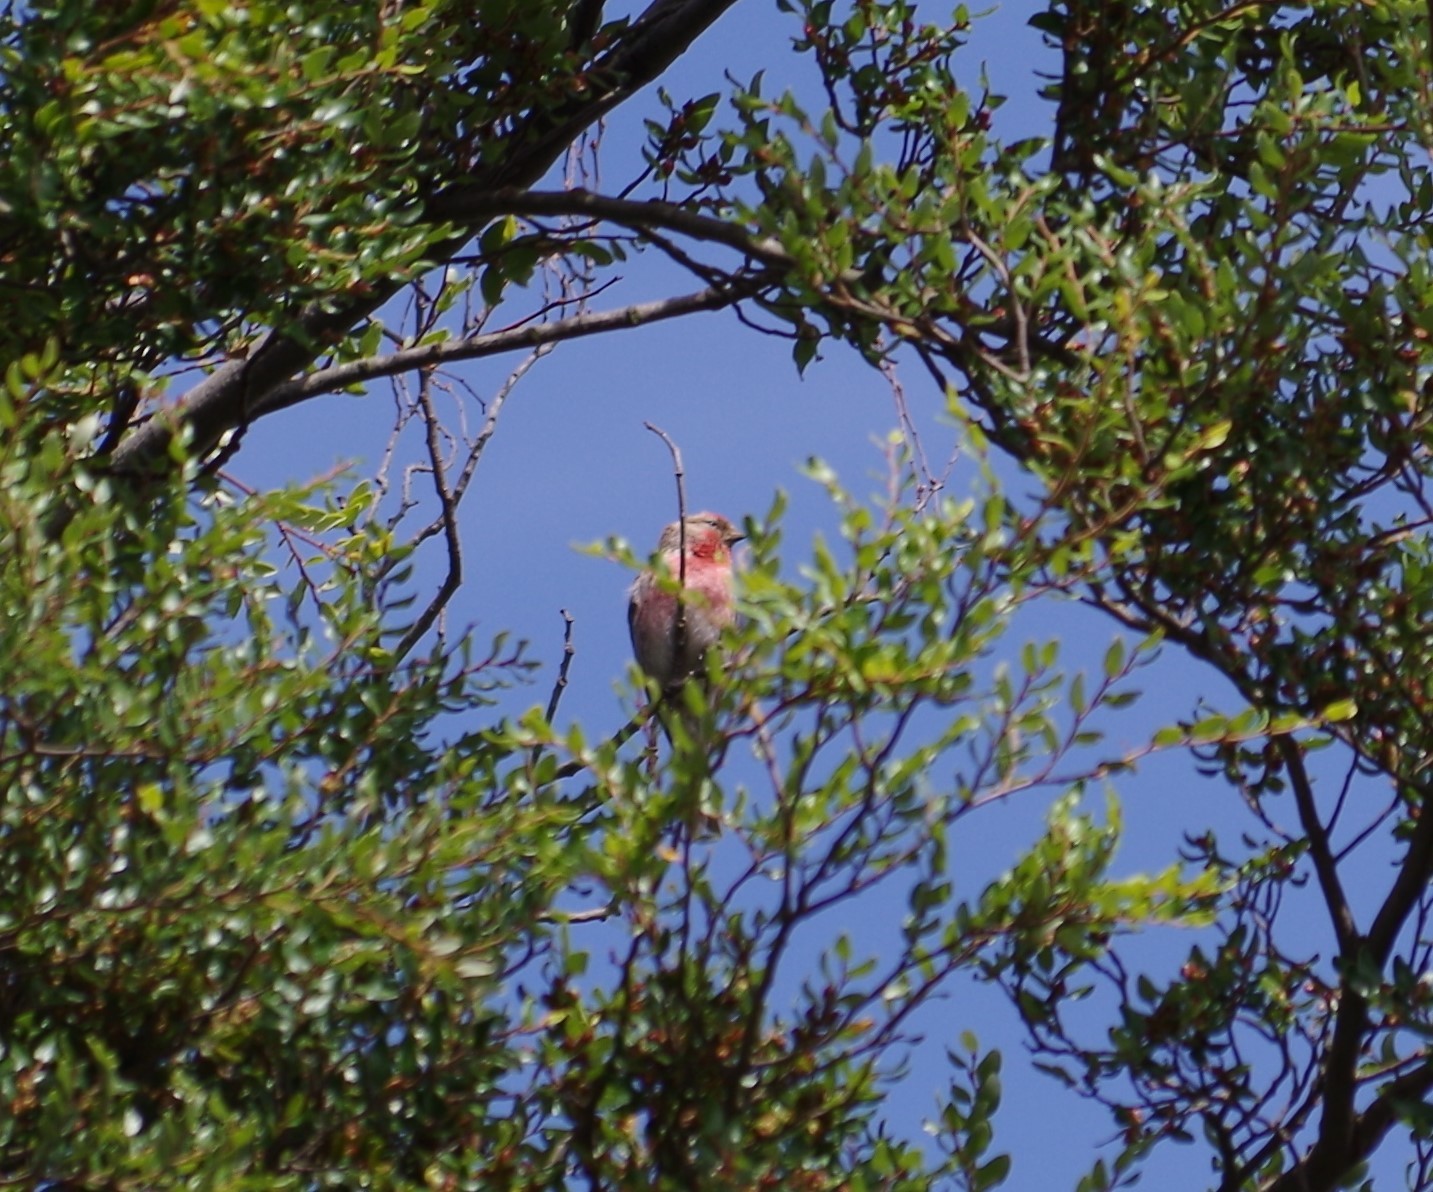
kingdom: Animalia
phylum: Chordata
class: Aves
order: Passeriformes
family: Fringillidae
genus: Acanthis
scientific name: Acanthis flammea
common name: Common redpoll
